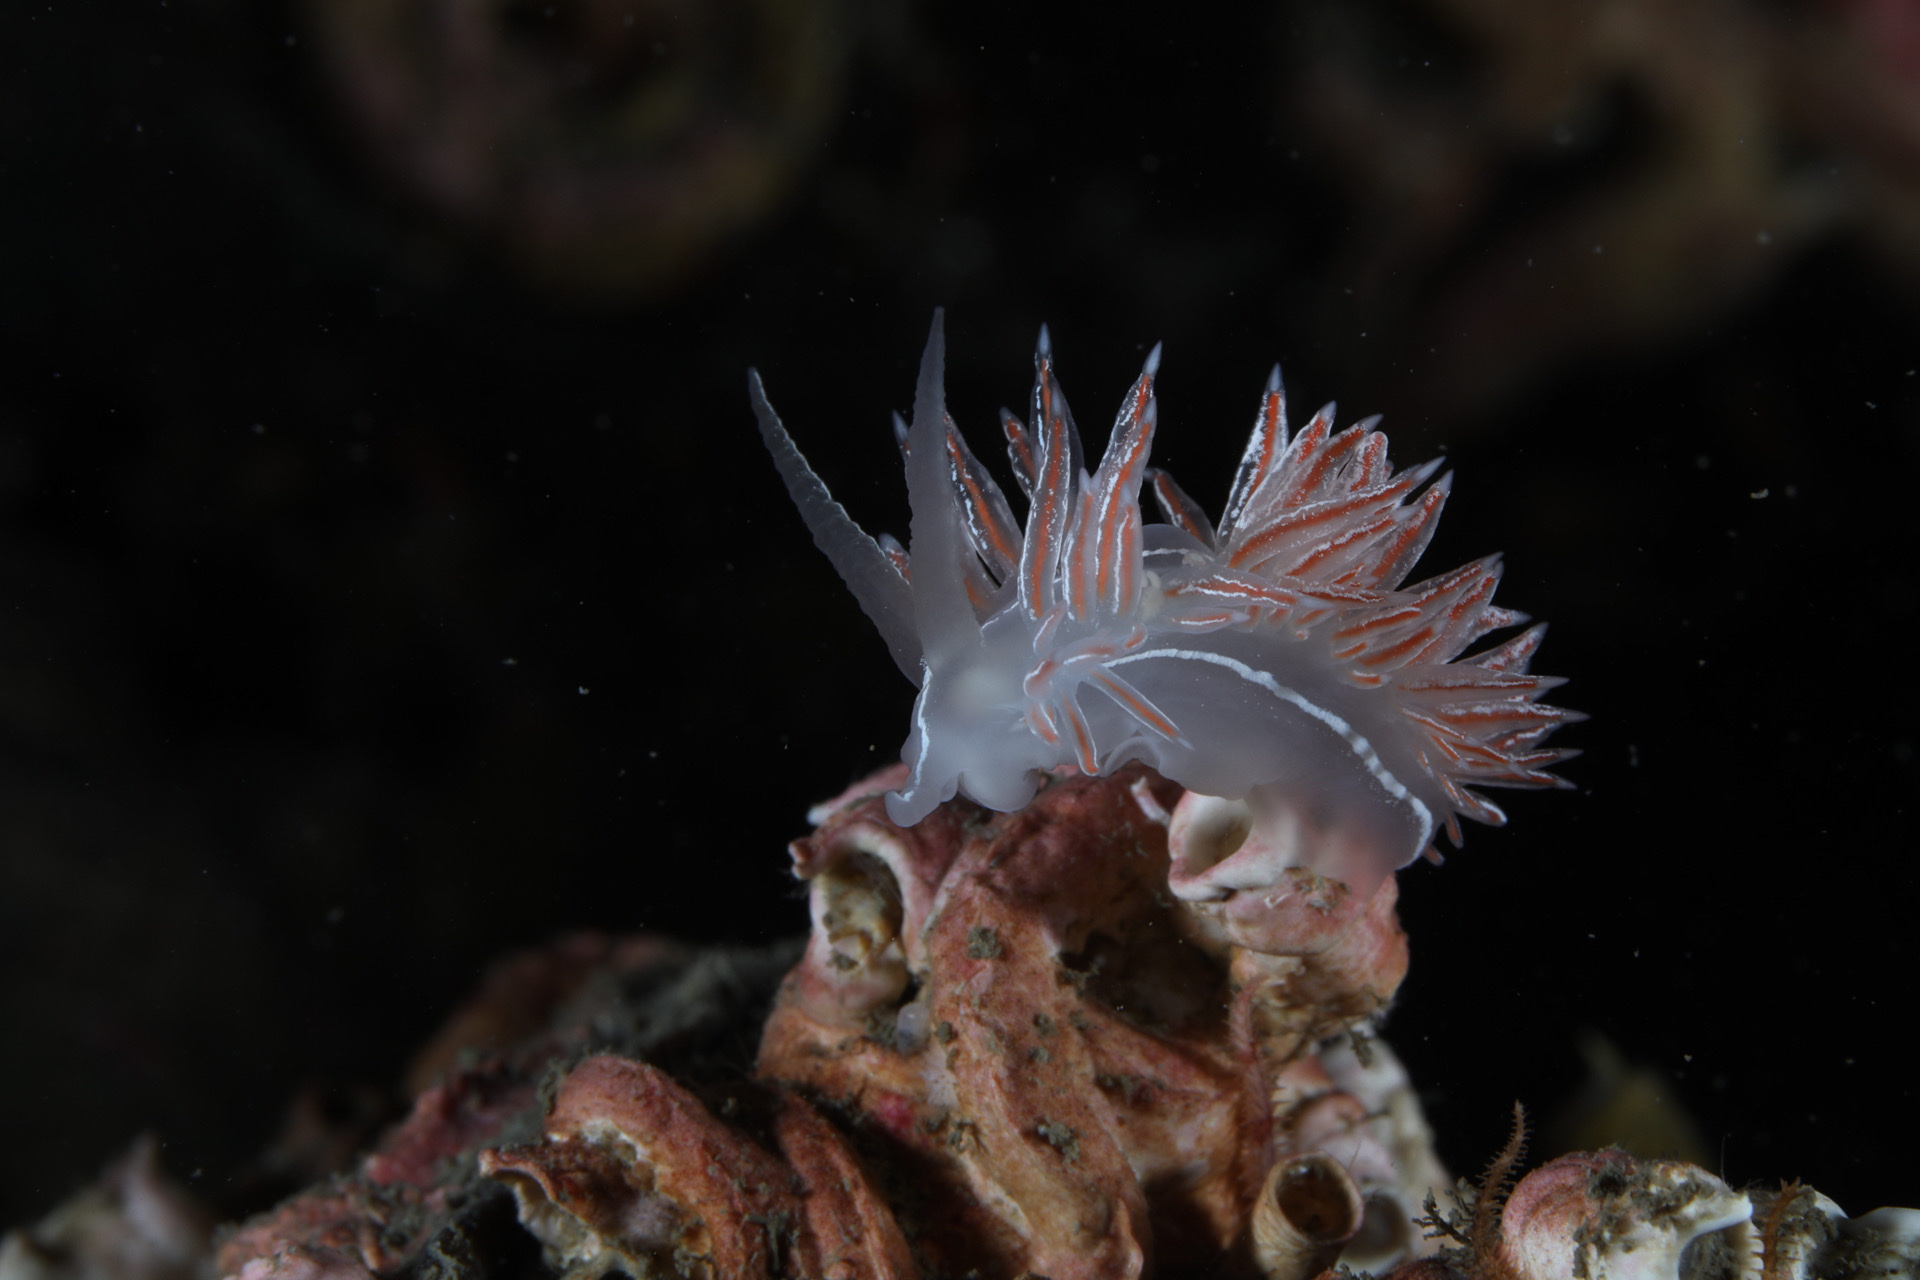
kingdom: Animalia
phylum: Mollusca
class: Gastropoda
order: Nudibranchia
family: Coryphellidae
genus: Coryphella
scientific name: Coryphella chriskaugei
